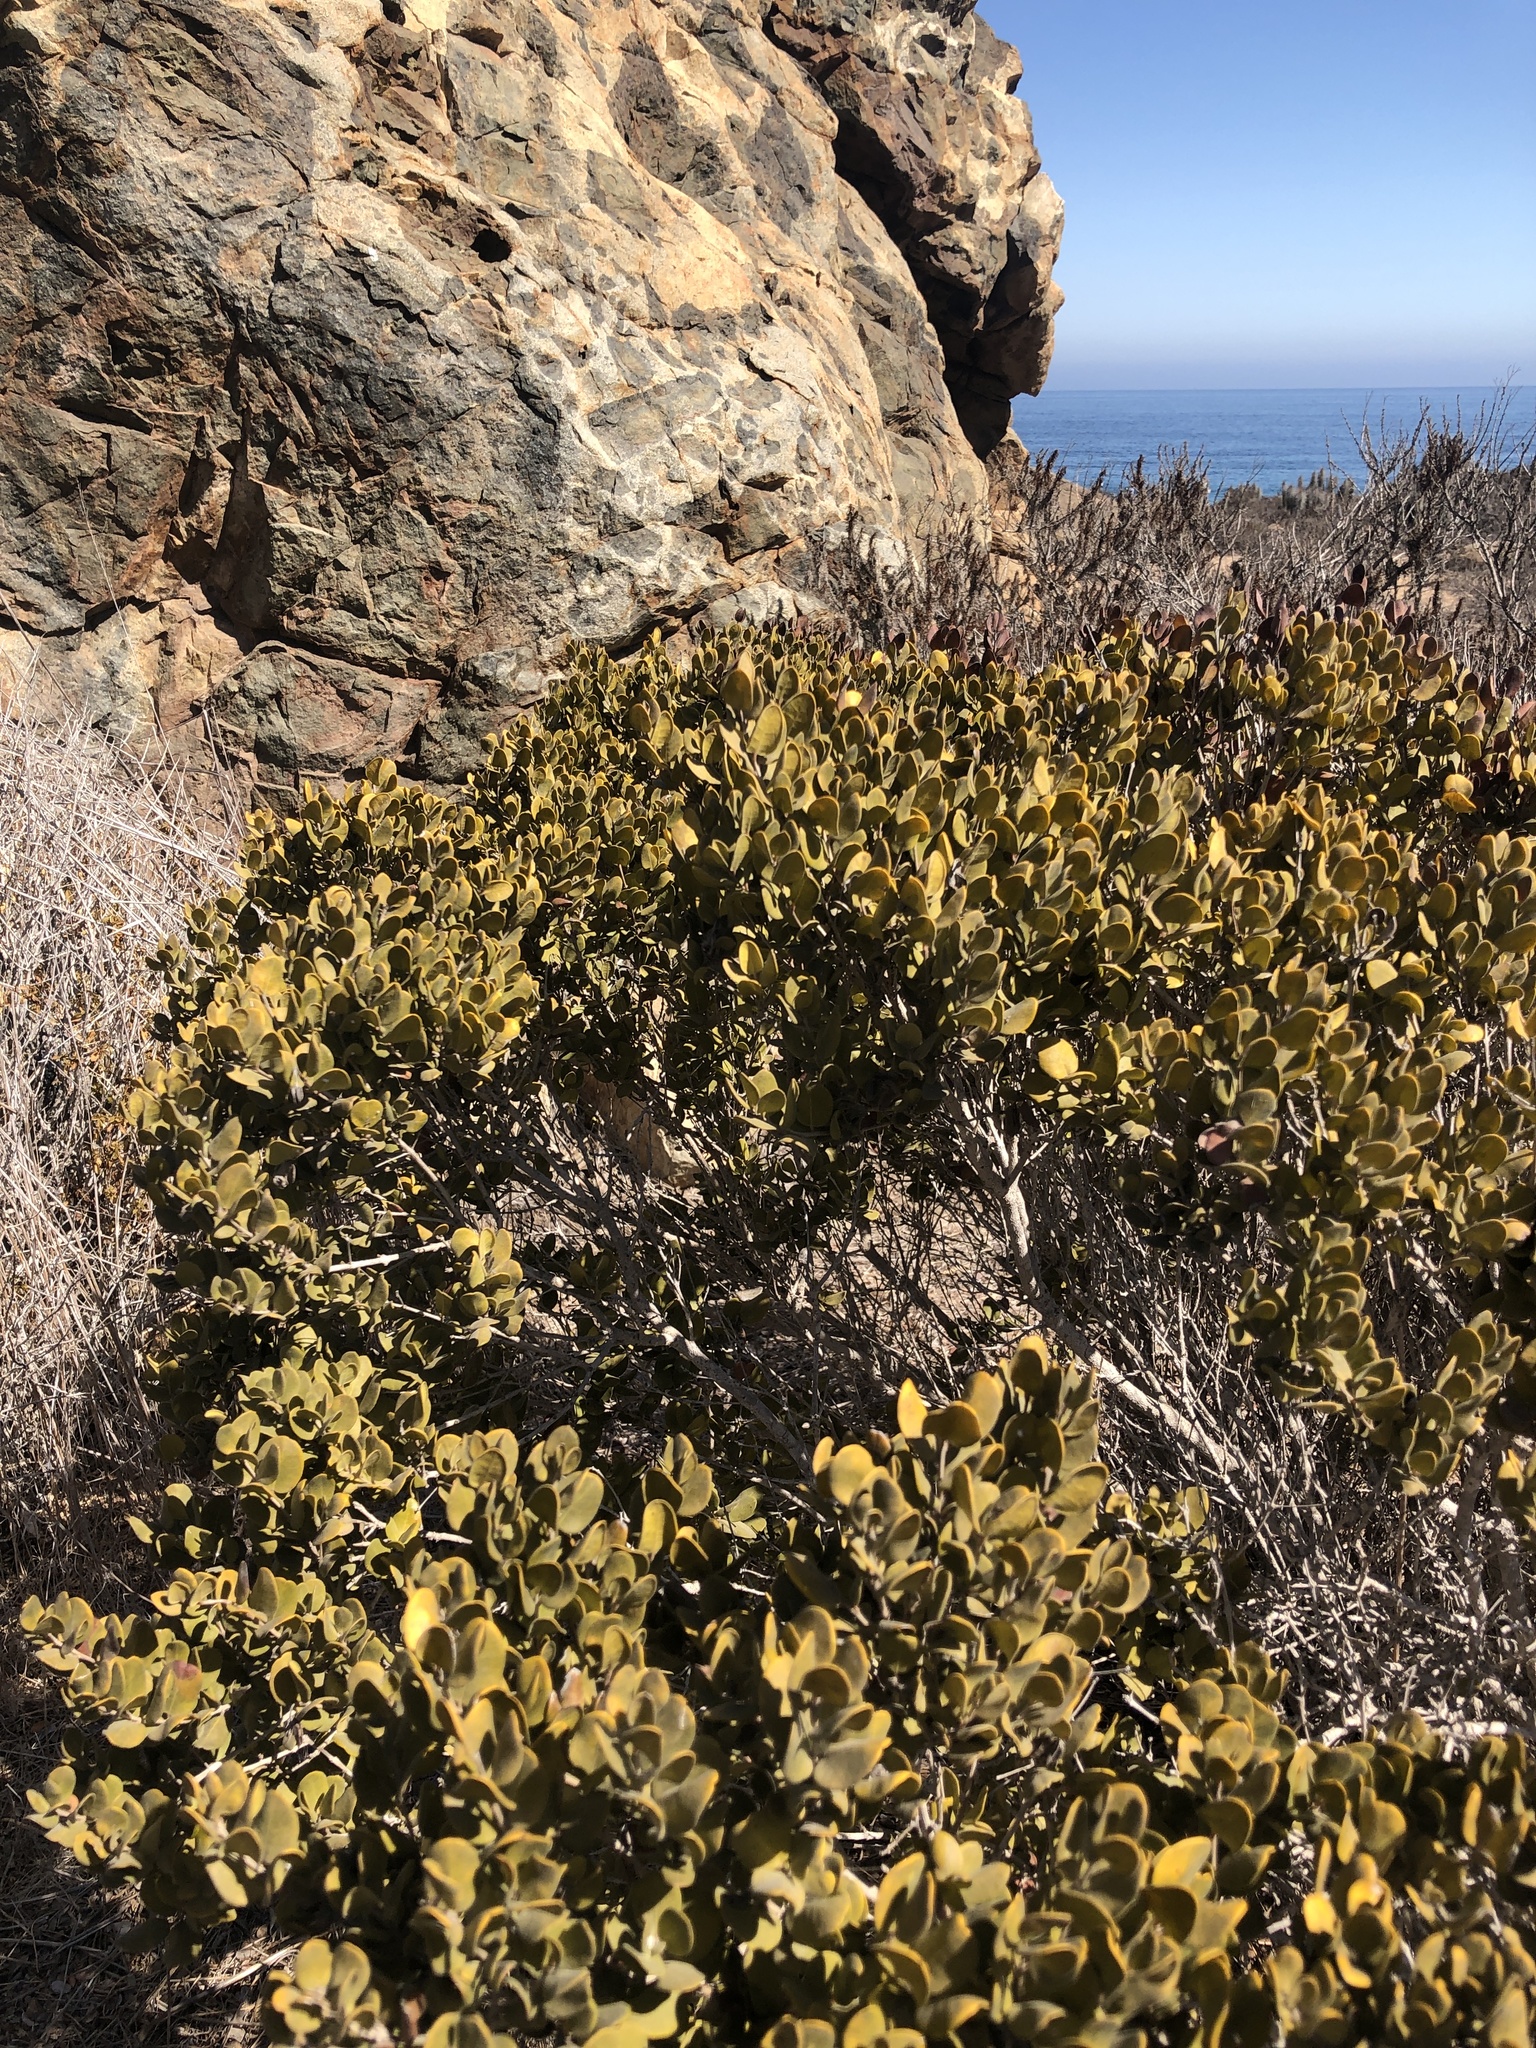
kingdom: Plantae
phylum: Tracheophyta
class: Magnoliopsida
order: Myrtales
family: Myrtaceae
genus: Myrcianthes
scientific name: Myrcianthes coquimbensis
